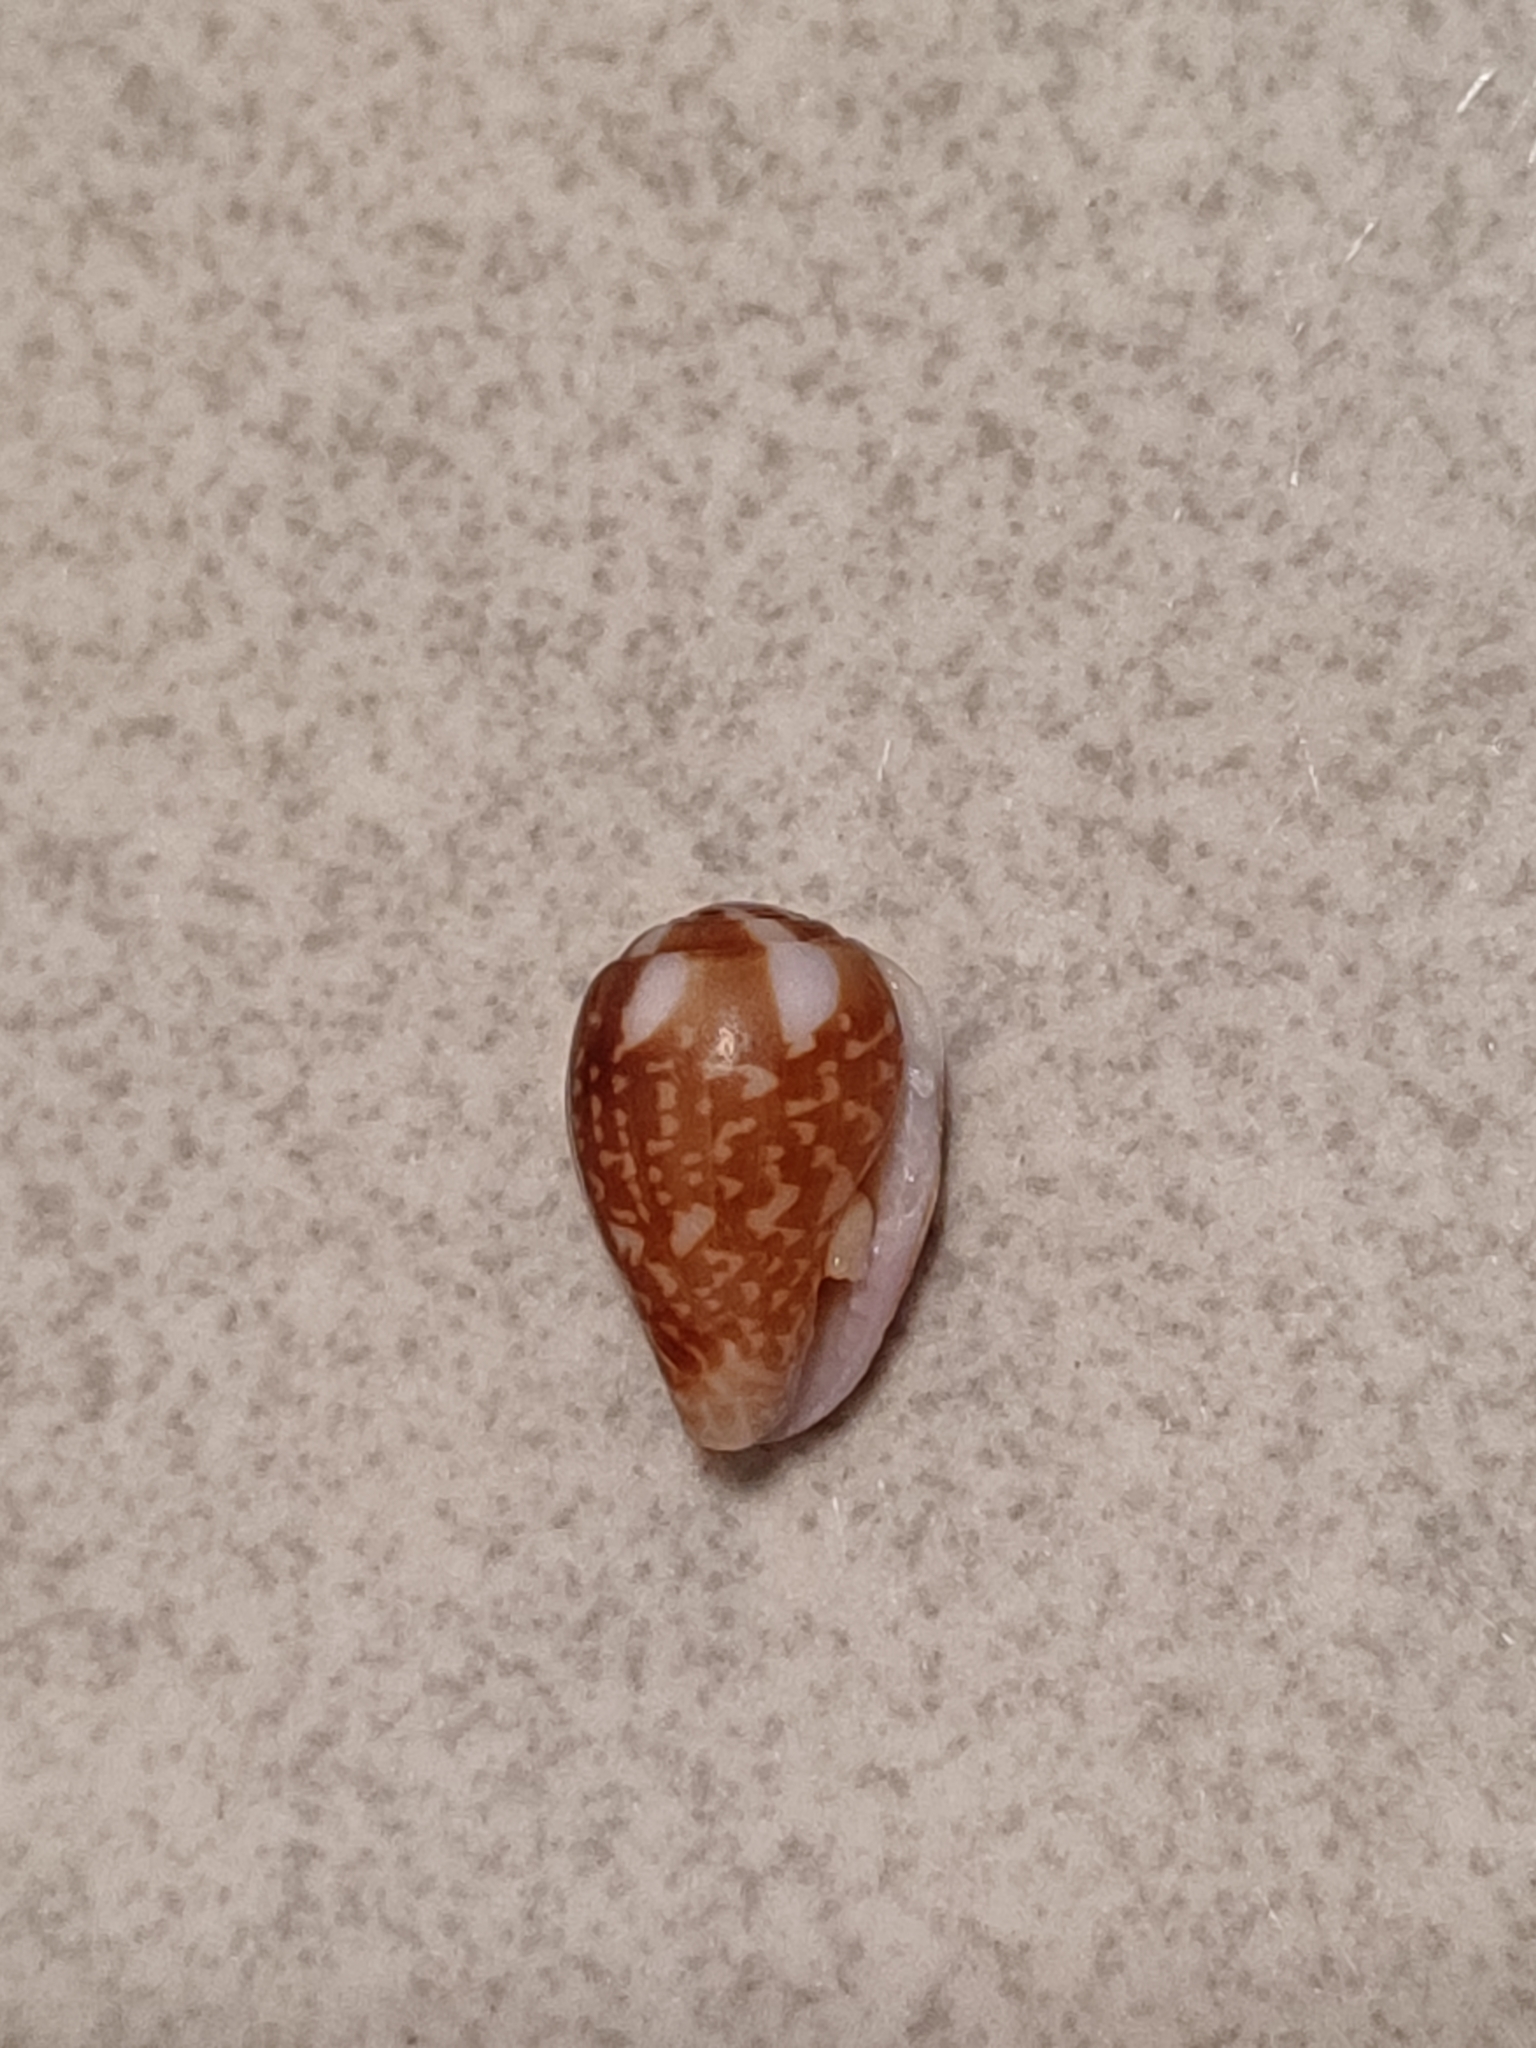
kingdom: Animalia
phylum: Mollusca
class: Gastropoda
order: Neogastropoda
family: Columbellidae
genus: Pyrene
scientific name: Pyrene punctata
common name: Punctate dovesnail
